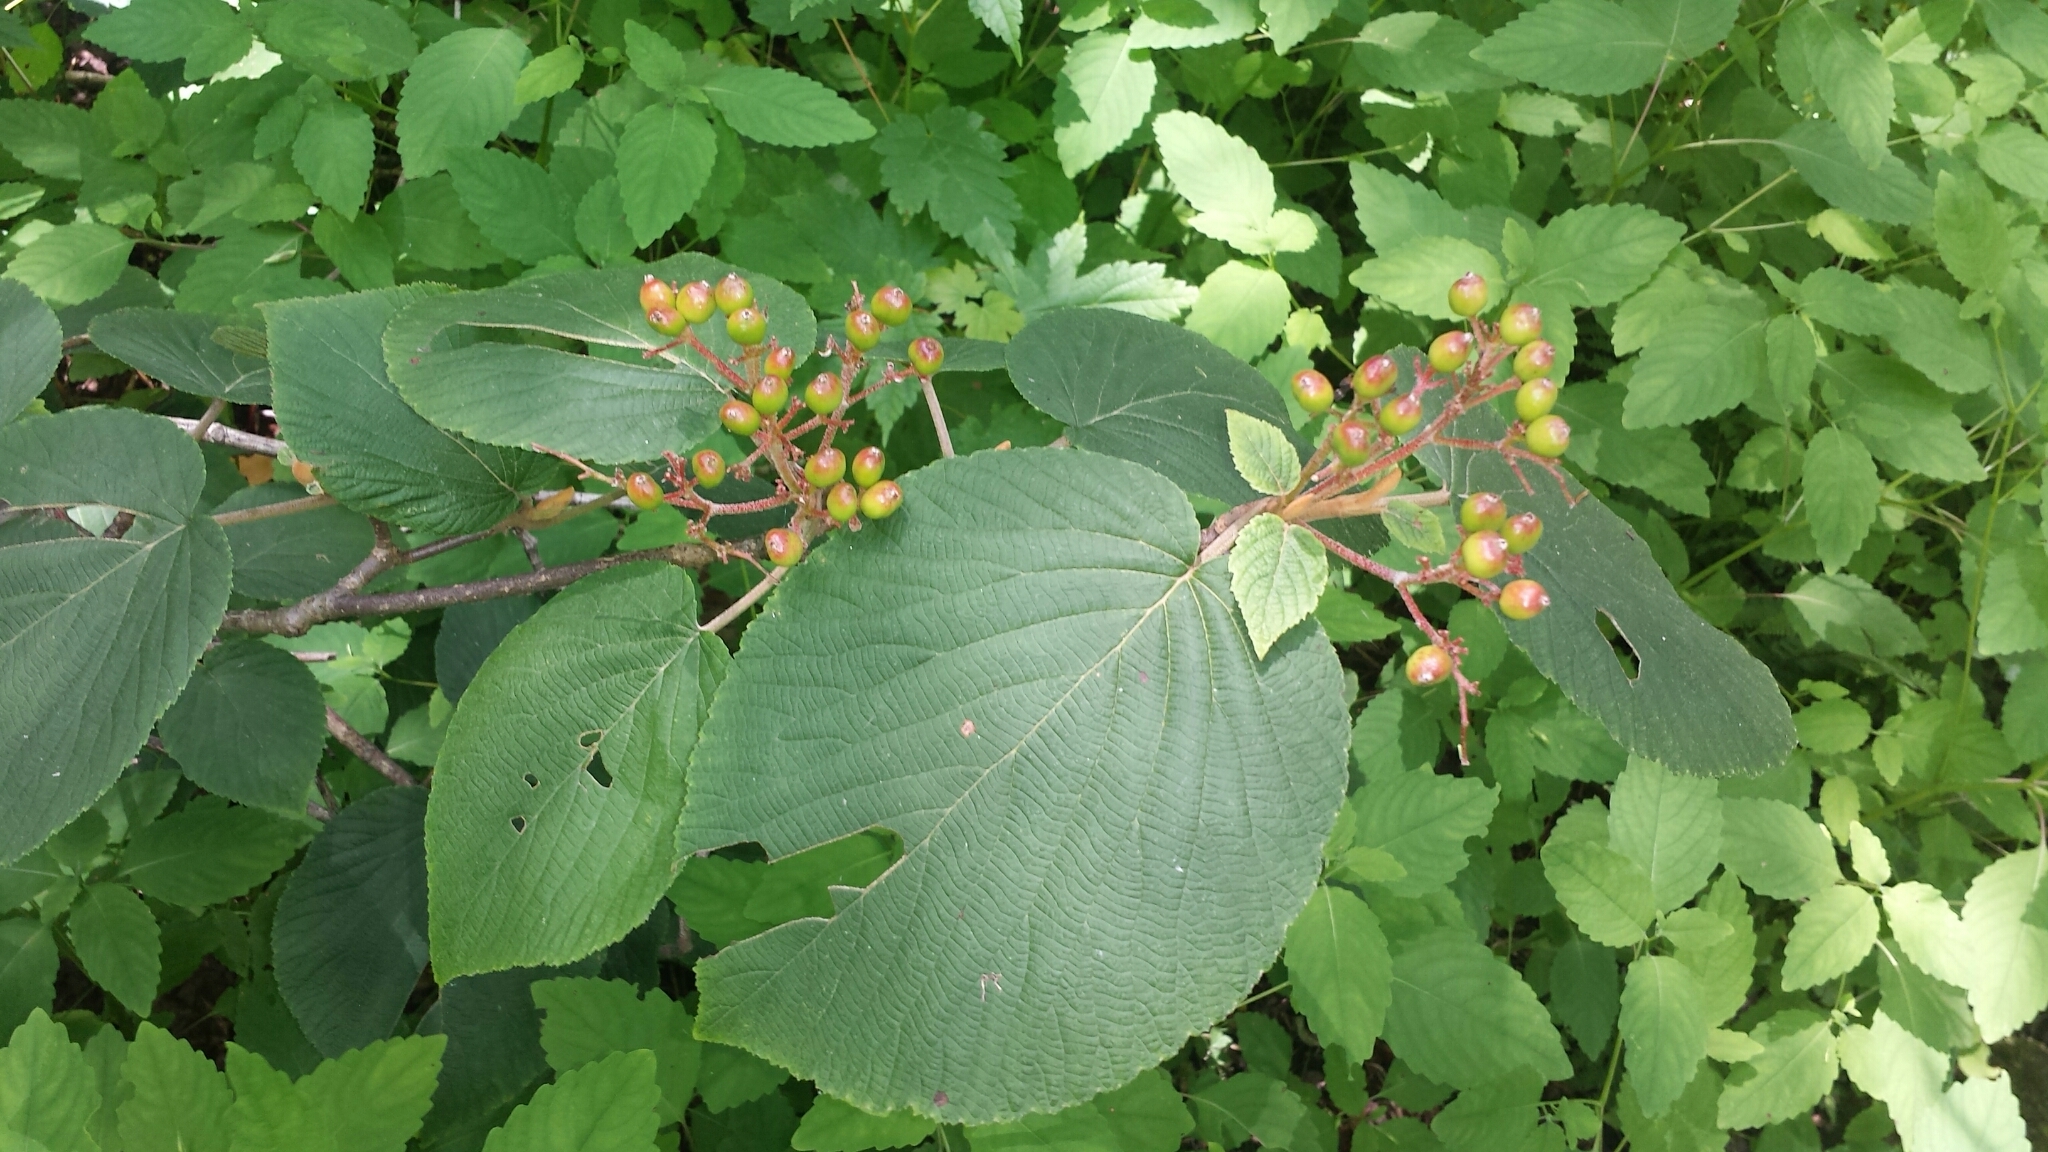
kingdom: Plantae
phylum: Tracheophyta
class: Magnoliopsida
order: Dipsacales
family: Viburnaceae
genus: Viburnum
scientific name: Viburnum lantanoides
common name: Hobblebush
